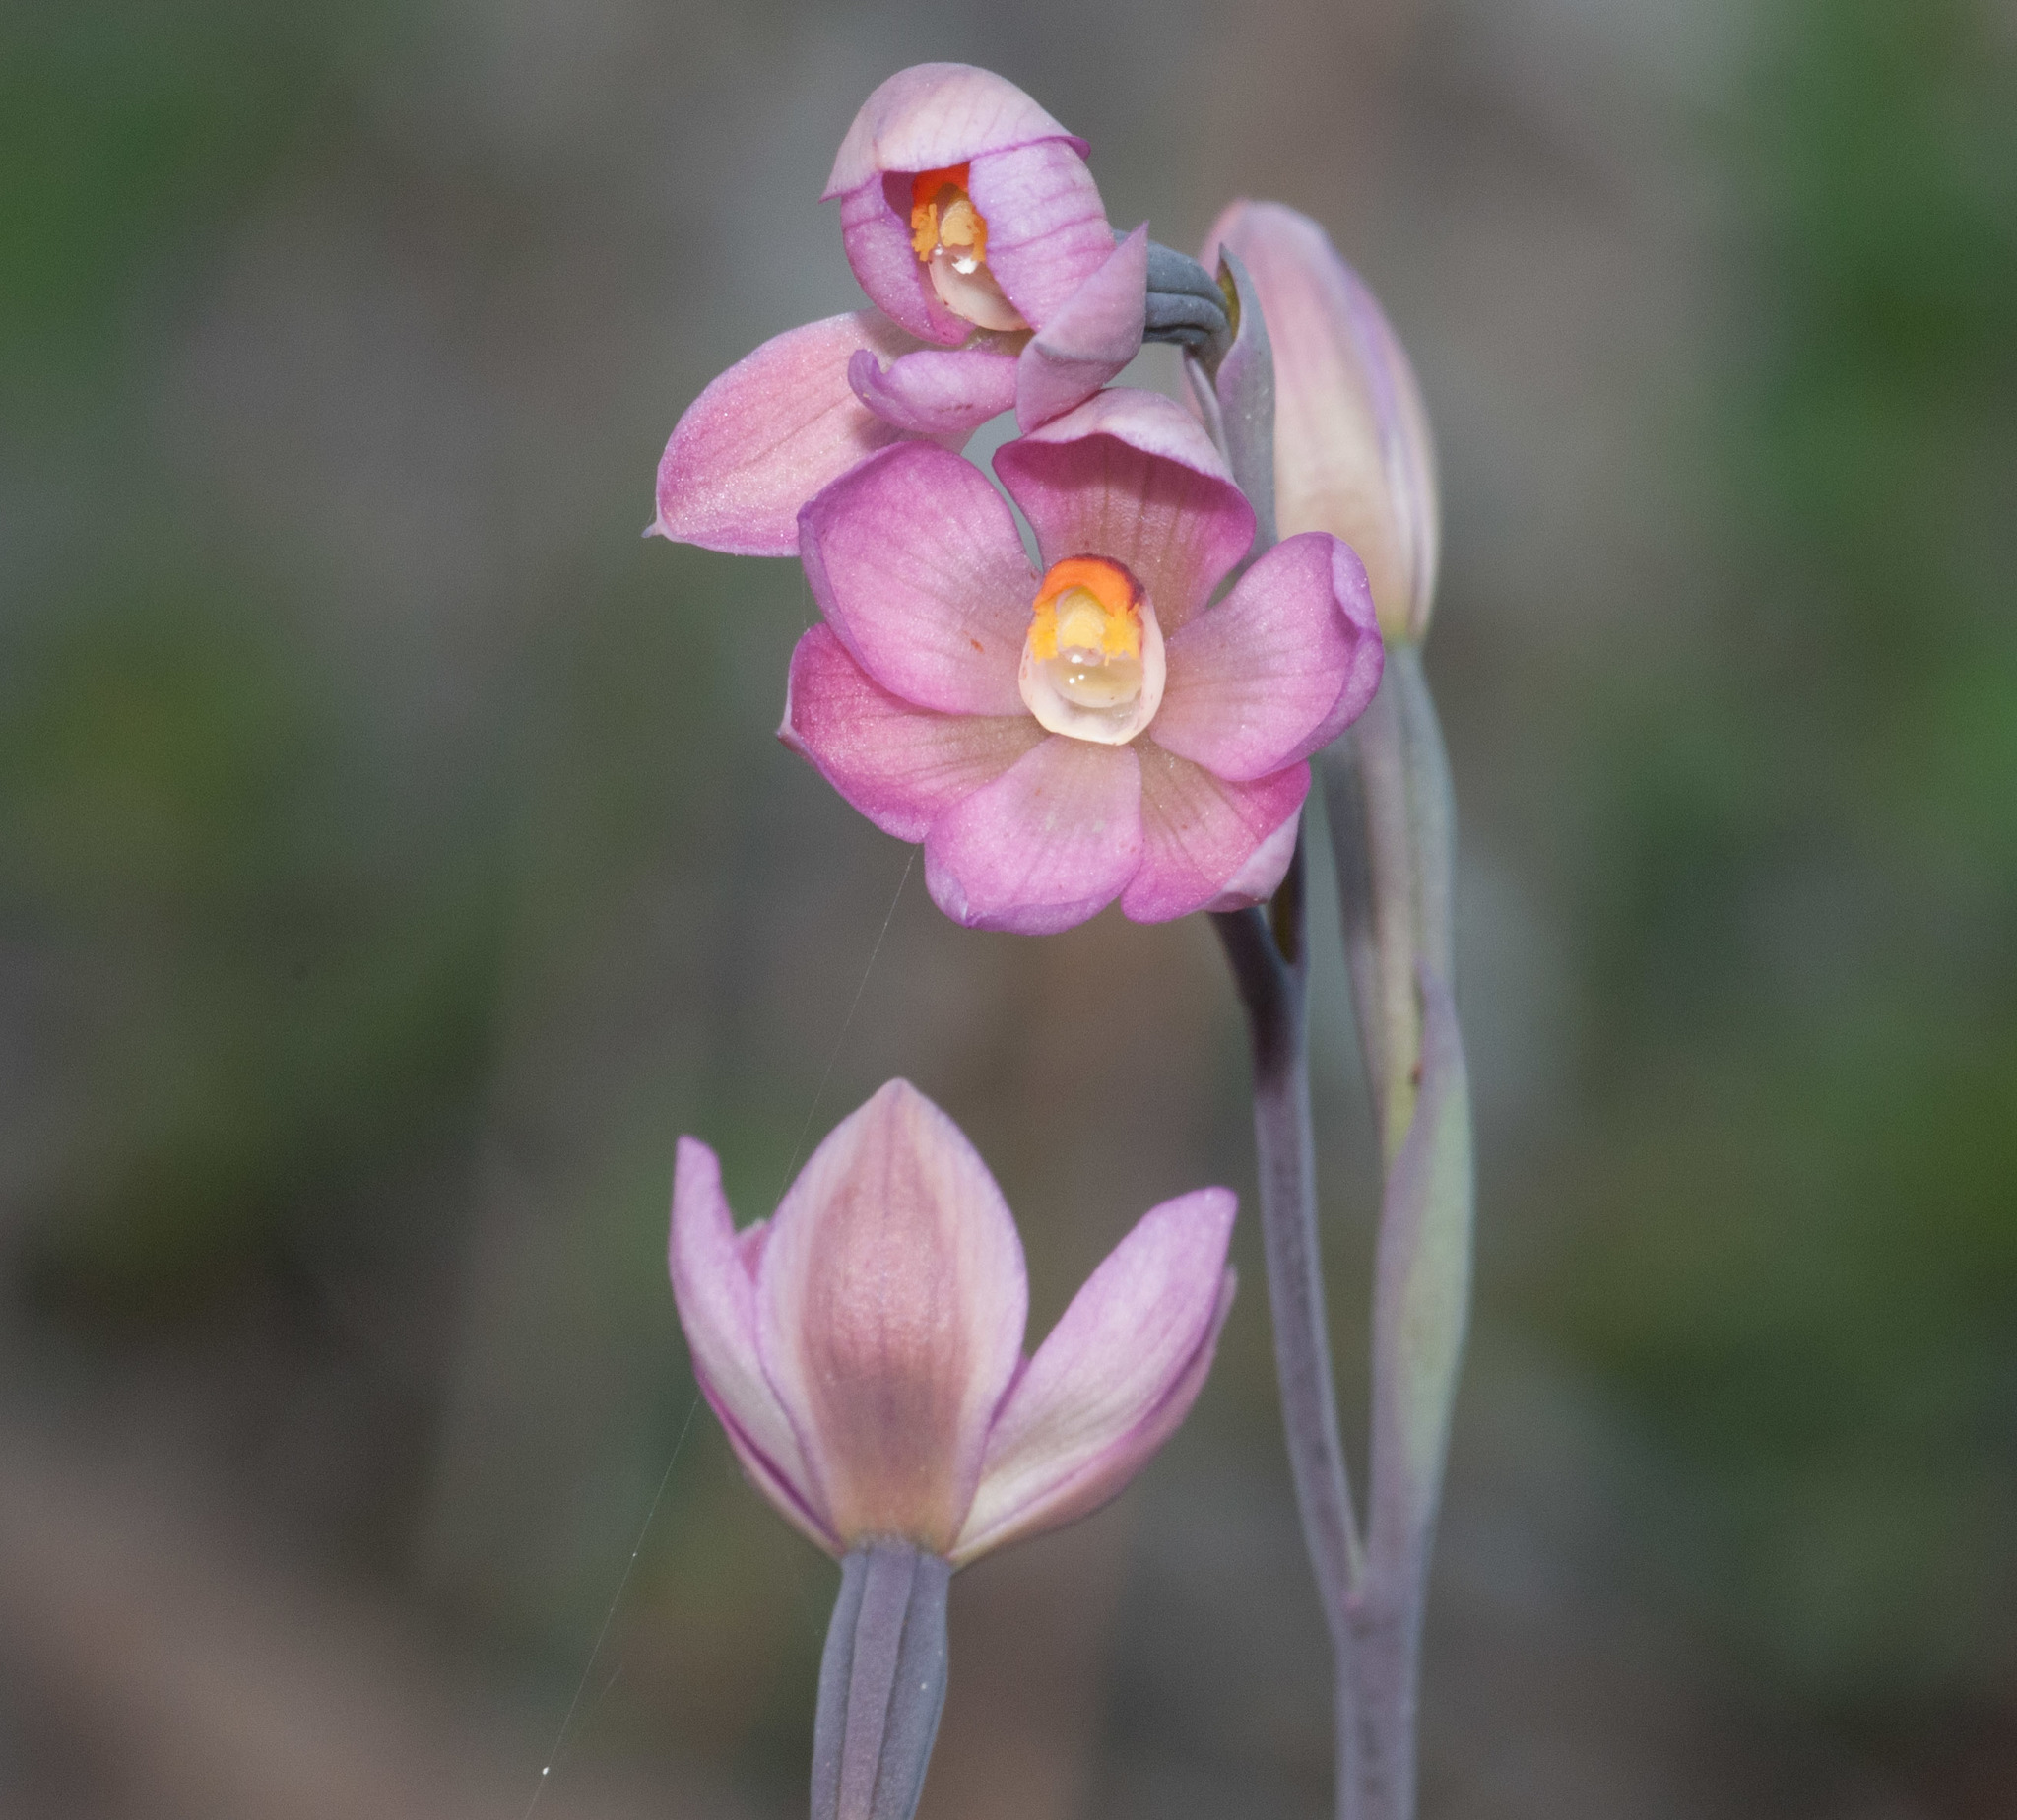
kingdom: Plantae
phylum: Tracheophyta
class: Liliopsida
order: Asparagales
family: Orchidaceae
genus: Thelymitra
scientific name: Thelymitra rubra
